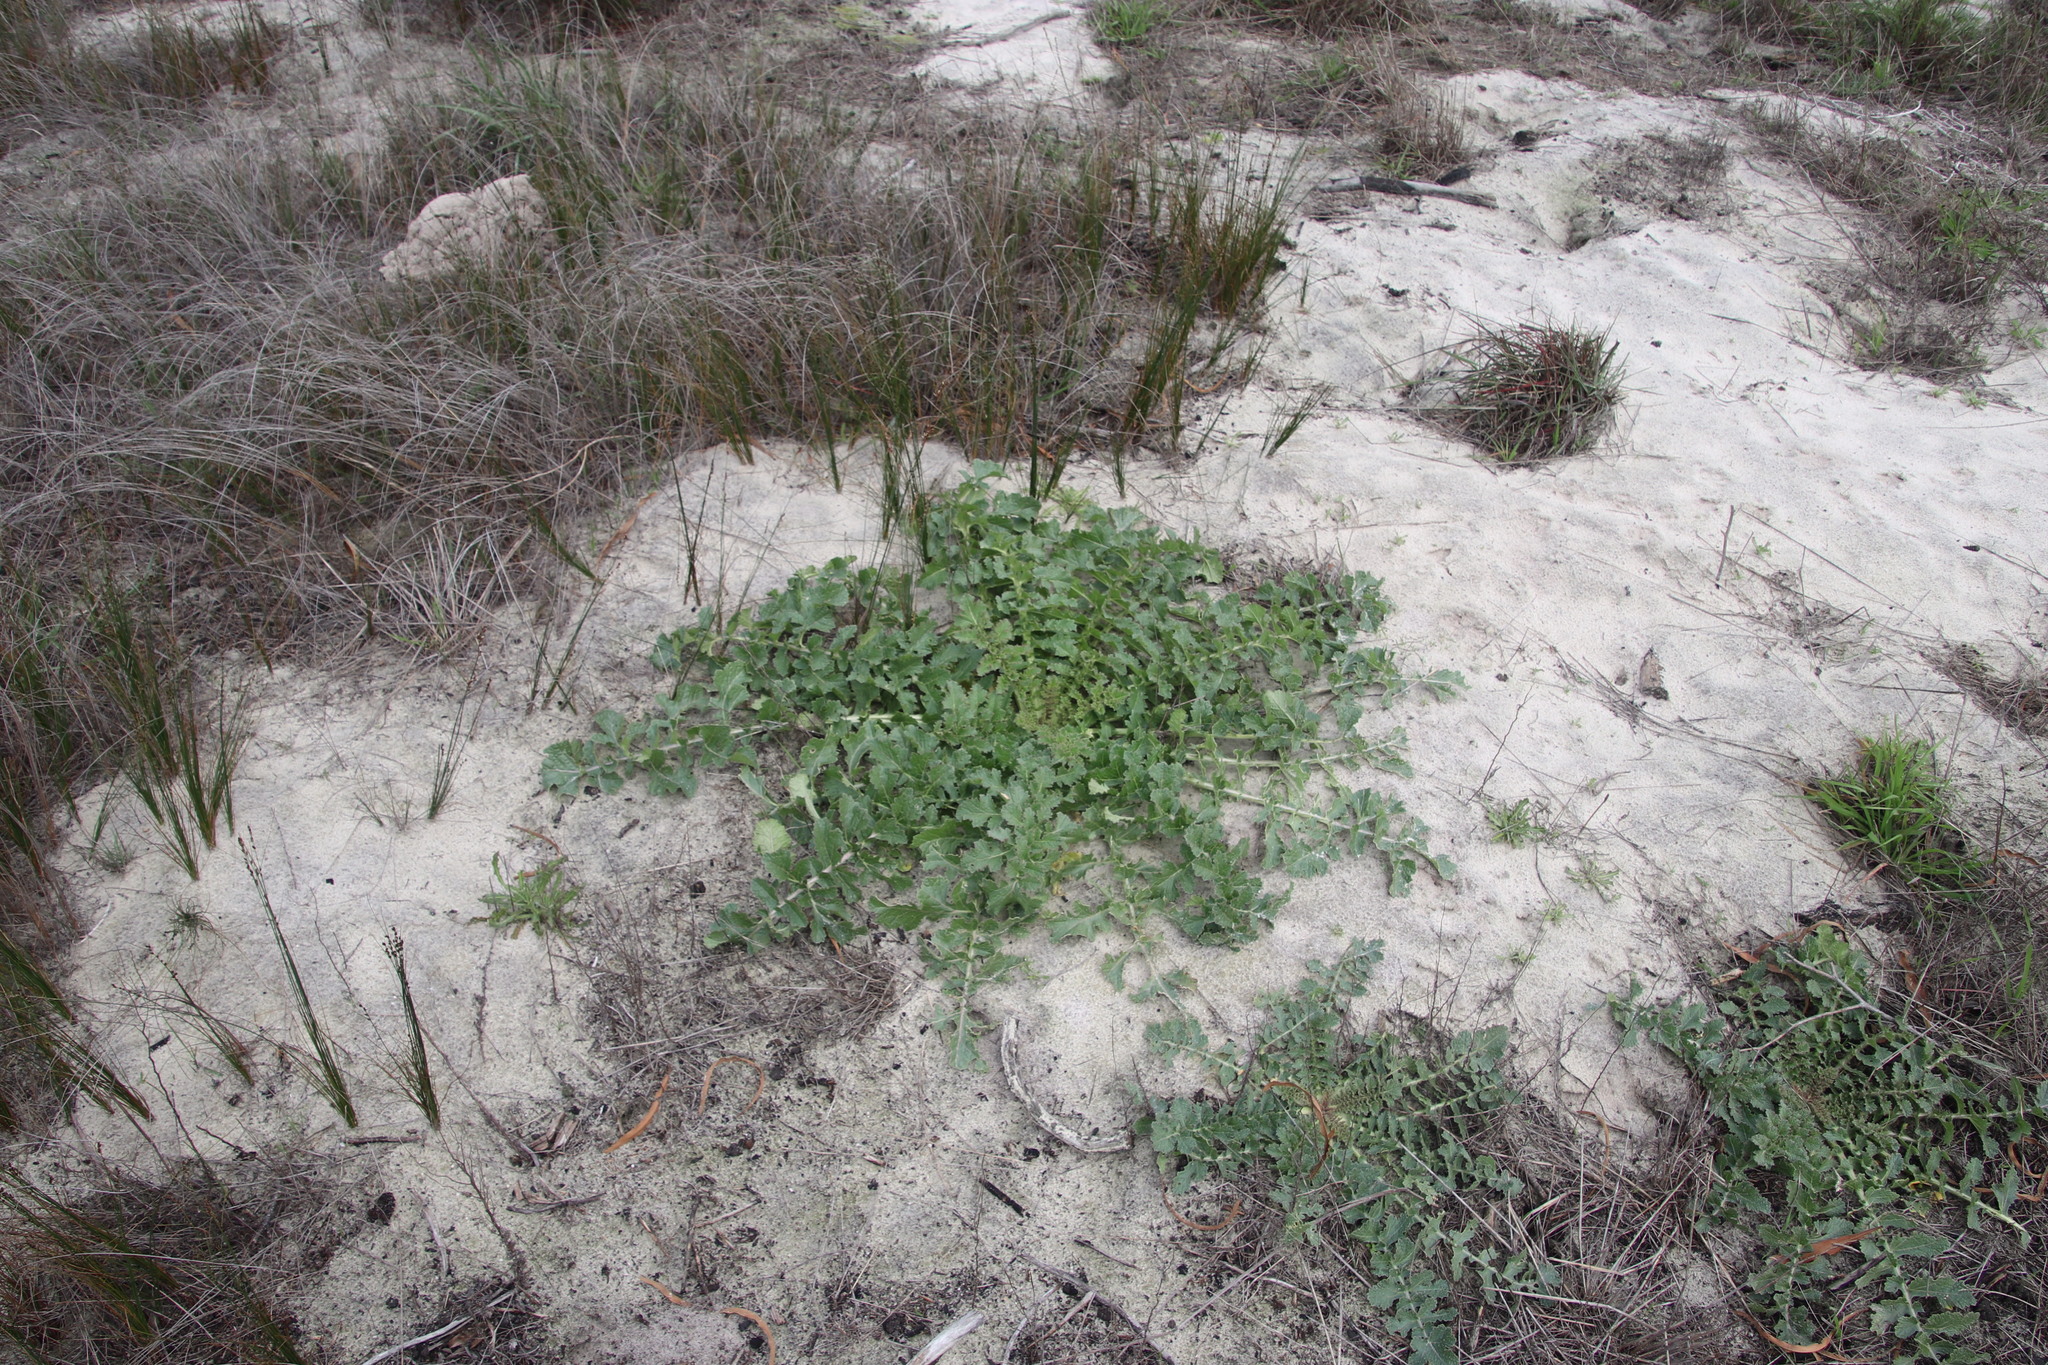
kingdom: Plantae
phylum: Tracheophyta
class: Magnoliopsida
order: Brassicales
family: Brassicaceae
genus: Brassica
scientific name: Brassica tournefortii
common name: Pale cabbage
